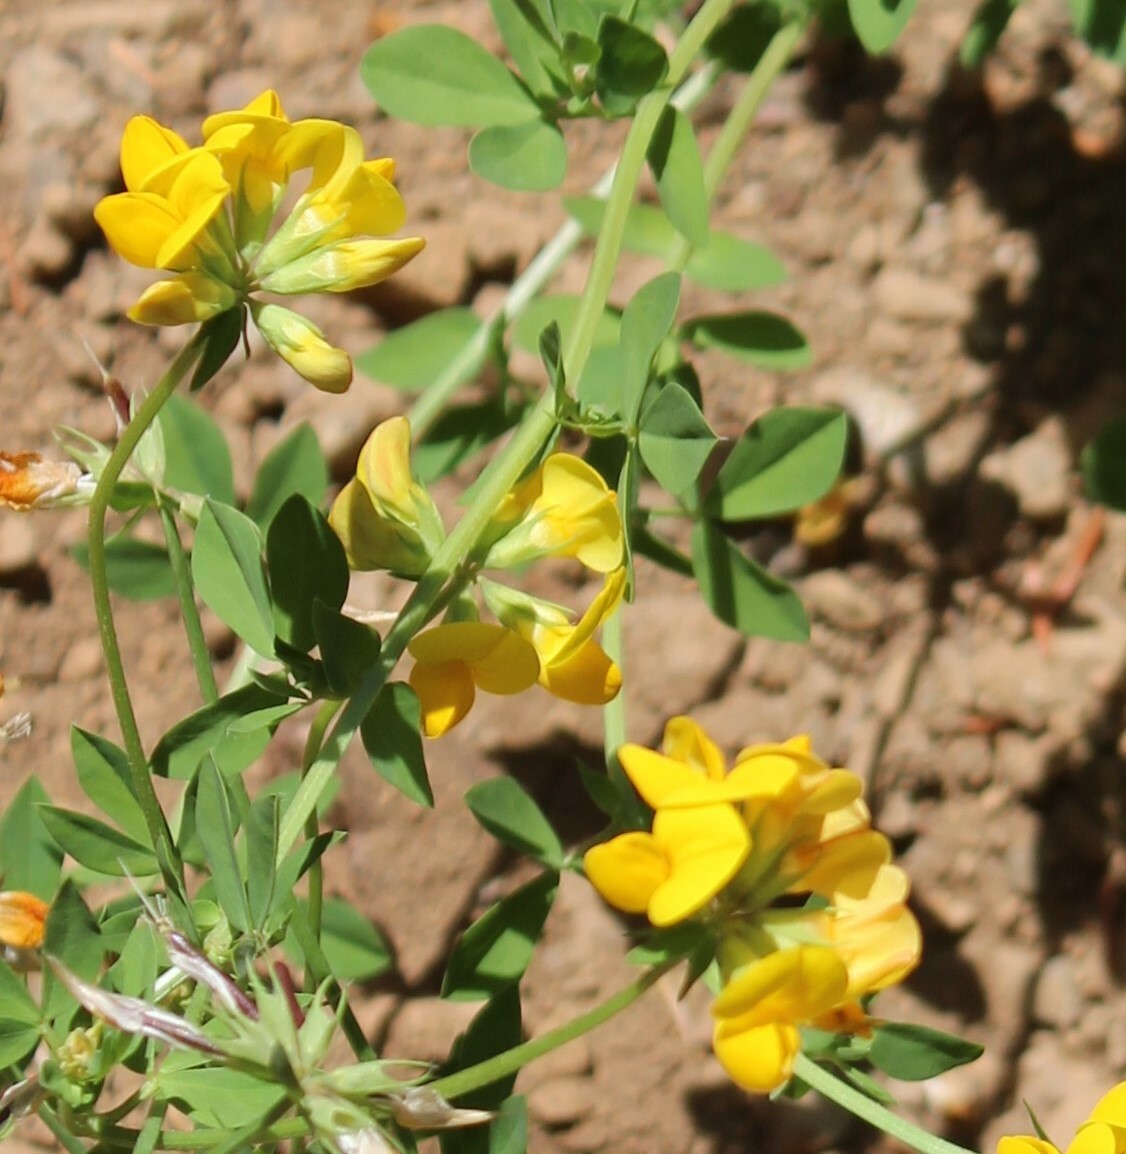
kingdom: Plantae
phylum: Tracheophyta
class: Magnoliopsida
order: Fabales
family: Fabaceae
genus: Lotus
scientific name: Lotus corniculatus
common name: Common bird's-foot-trefoil
